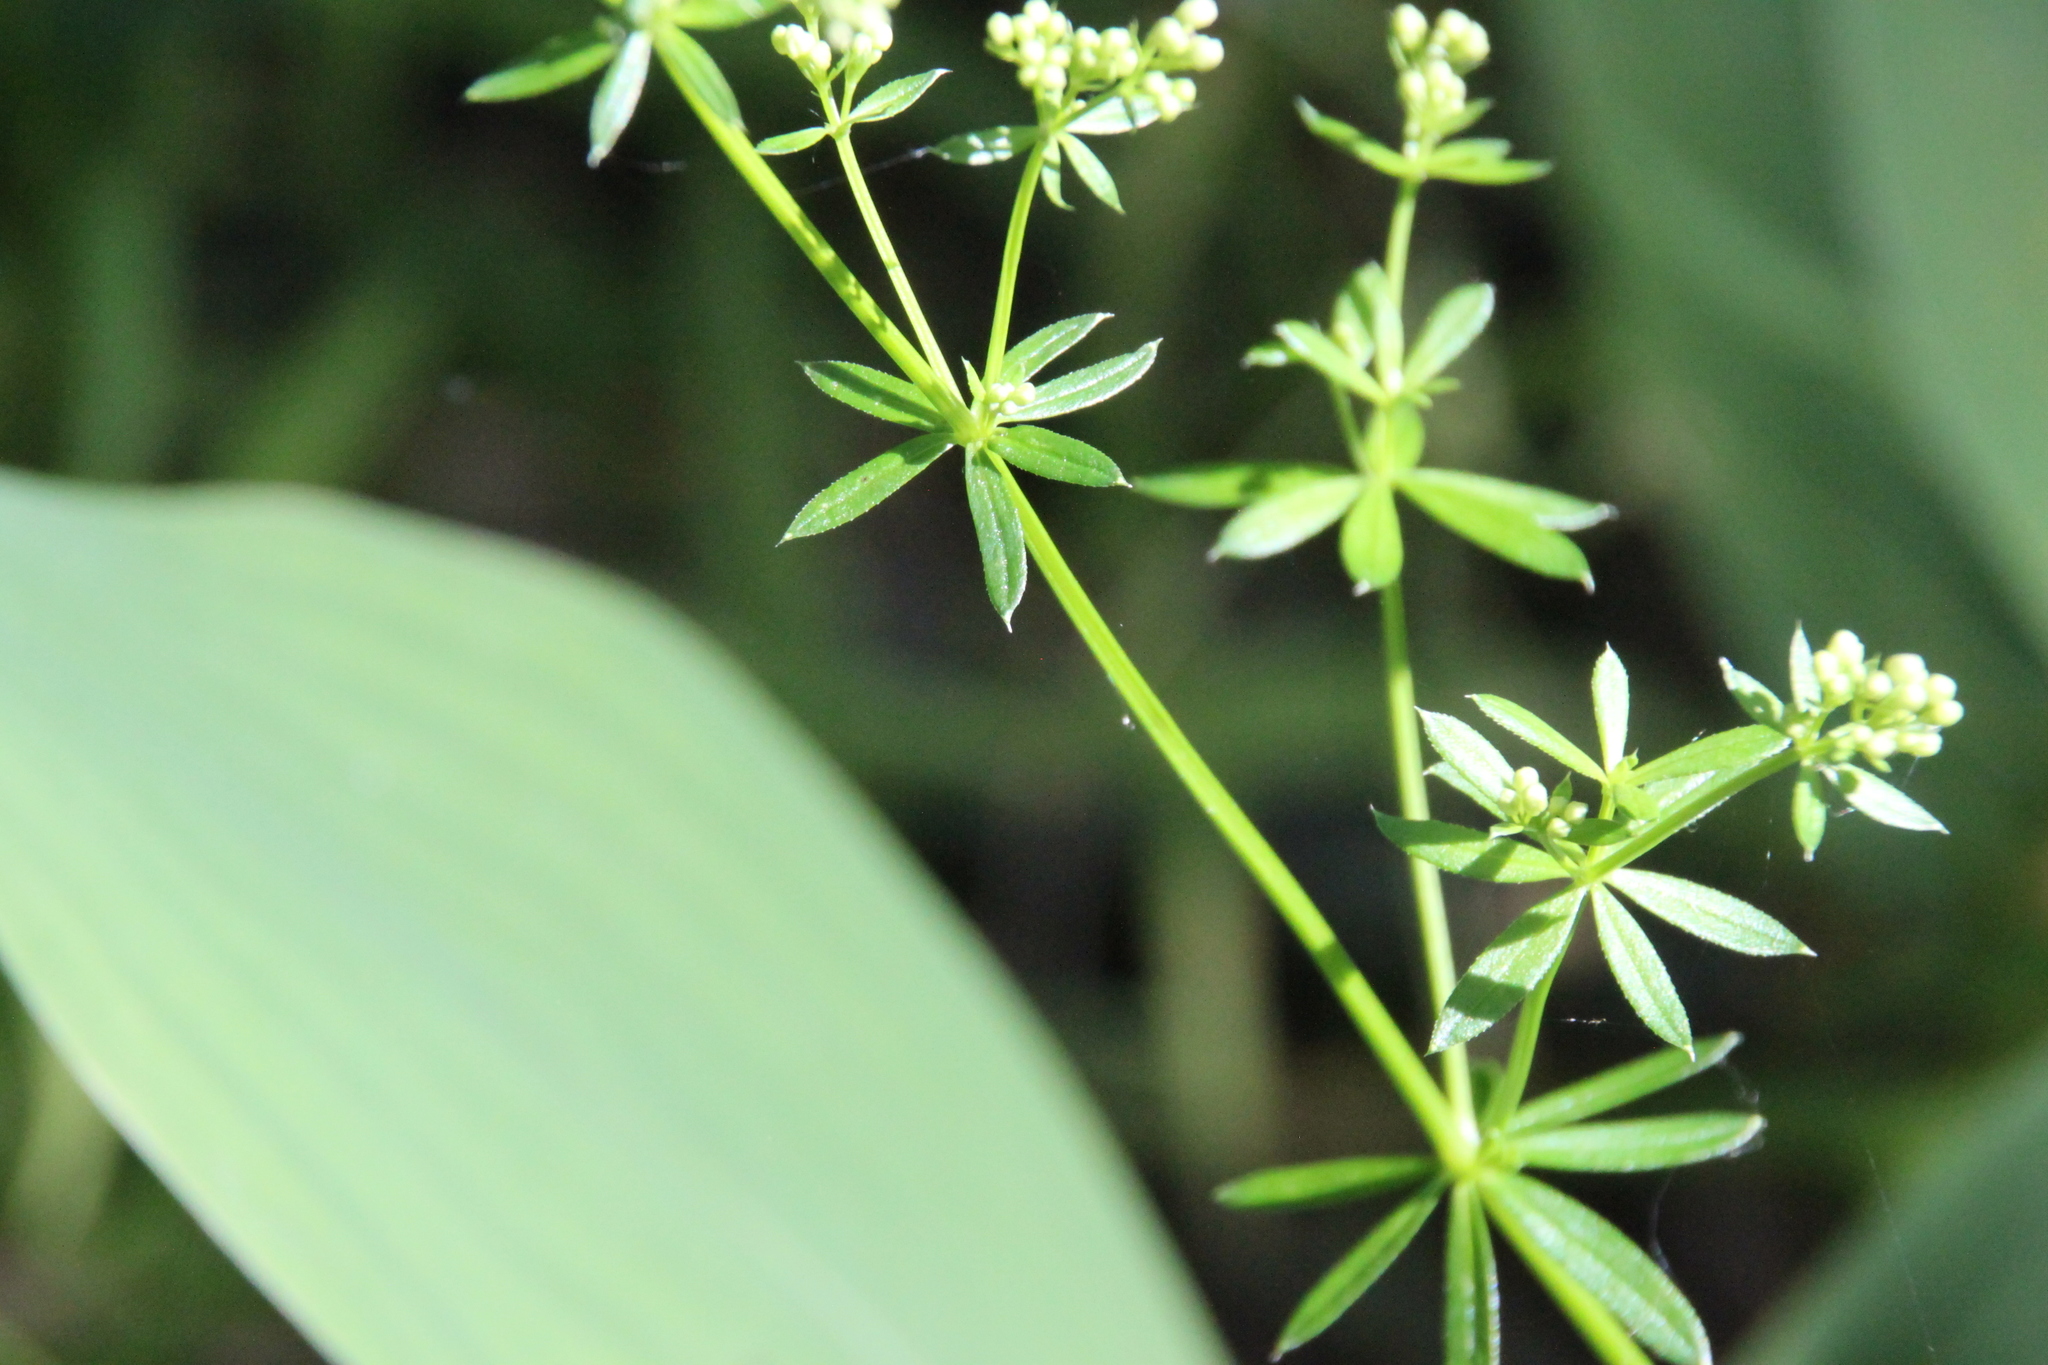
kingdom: Plantae
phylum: Tracheophyta
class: Magnoliopsida
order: Gentianales
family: Rubiaceae
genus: Galium
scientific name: Galium mollugo
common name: Hedge bedstraw
